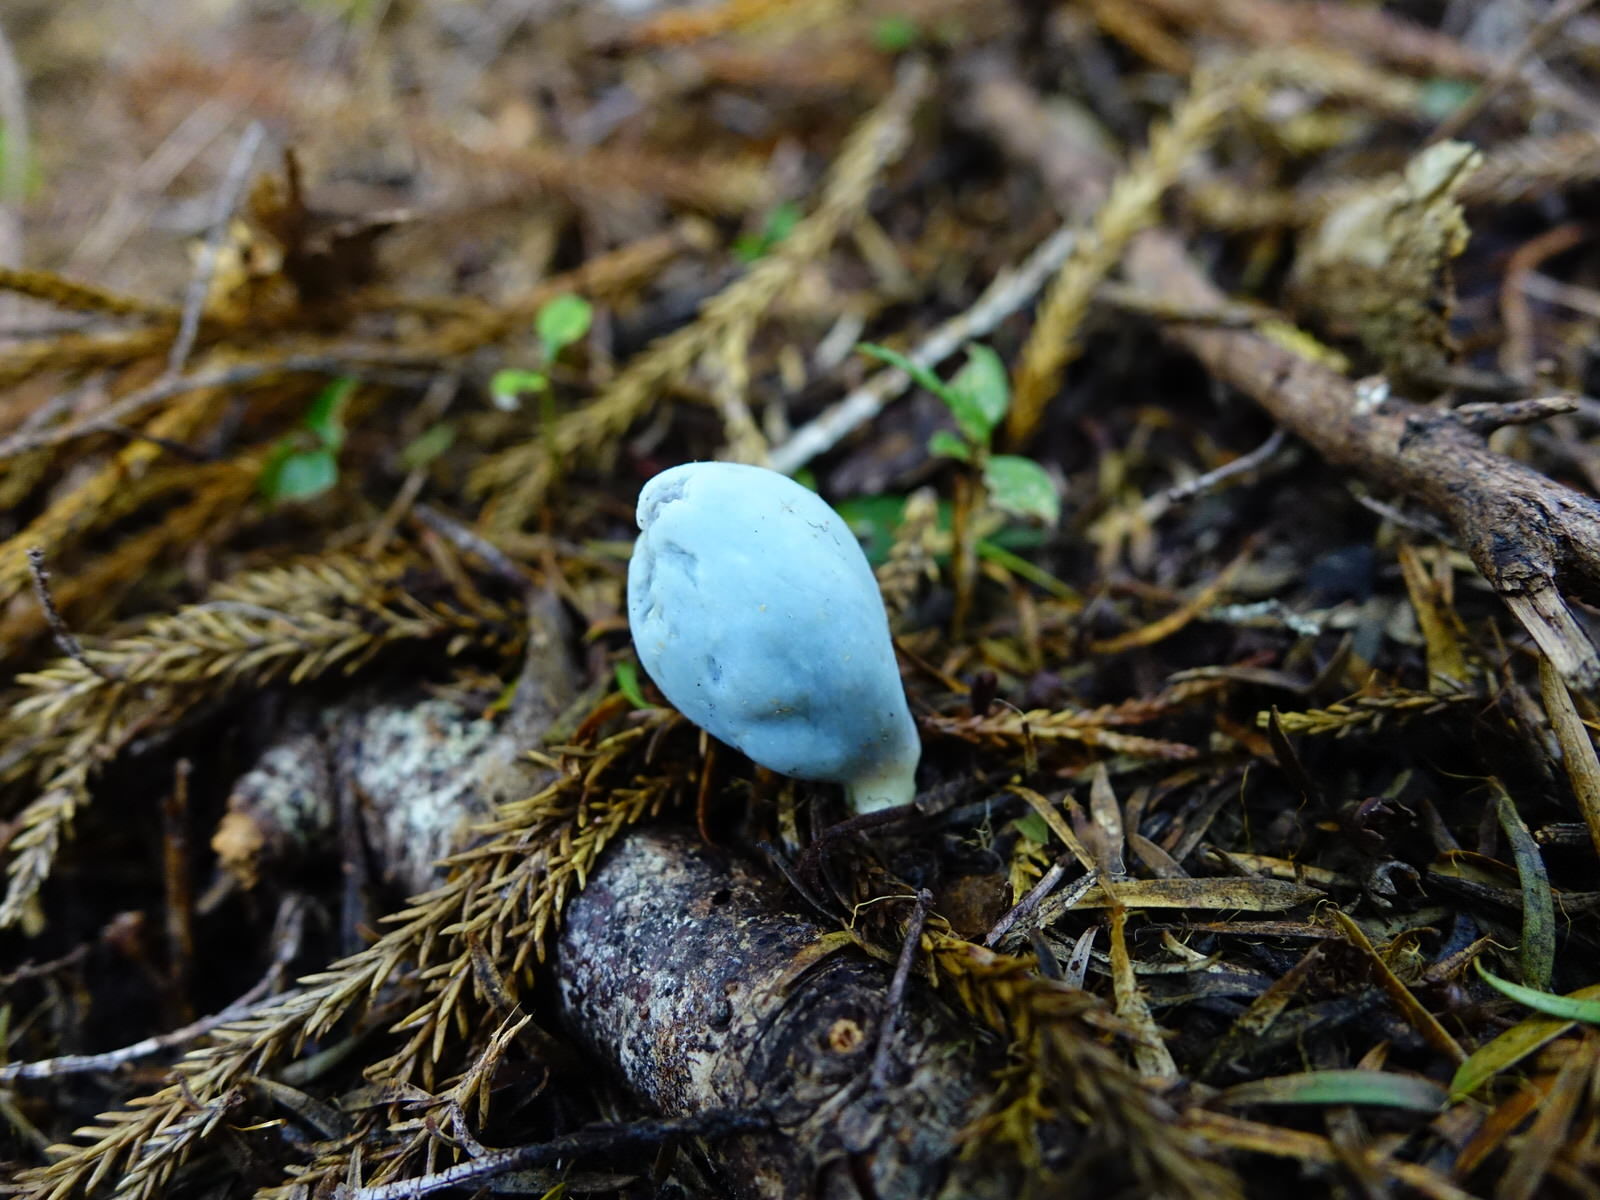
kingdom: Fungi
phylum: Basidiomycota
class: Agaricomycetes
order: Agaricales
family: Agaricaceae
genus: Clavogaster
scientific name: Clavogaster virescens
